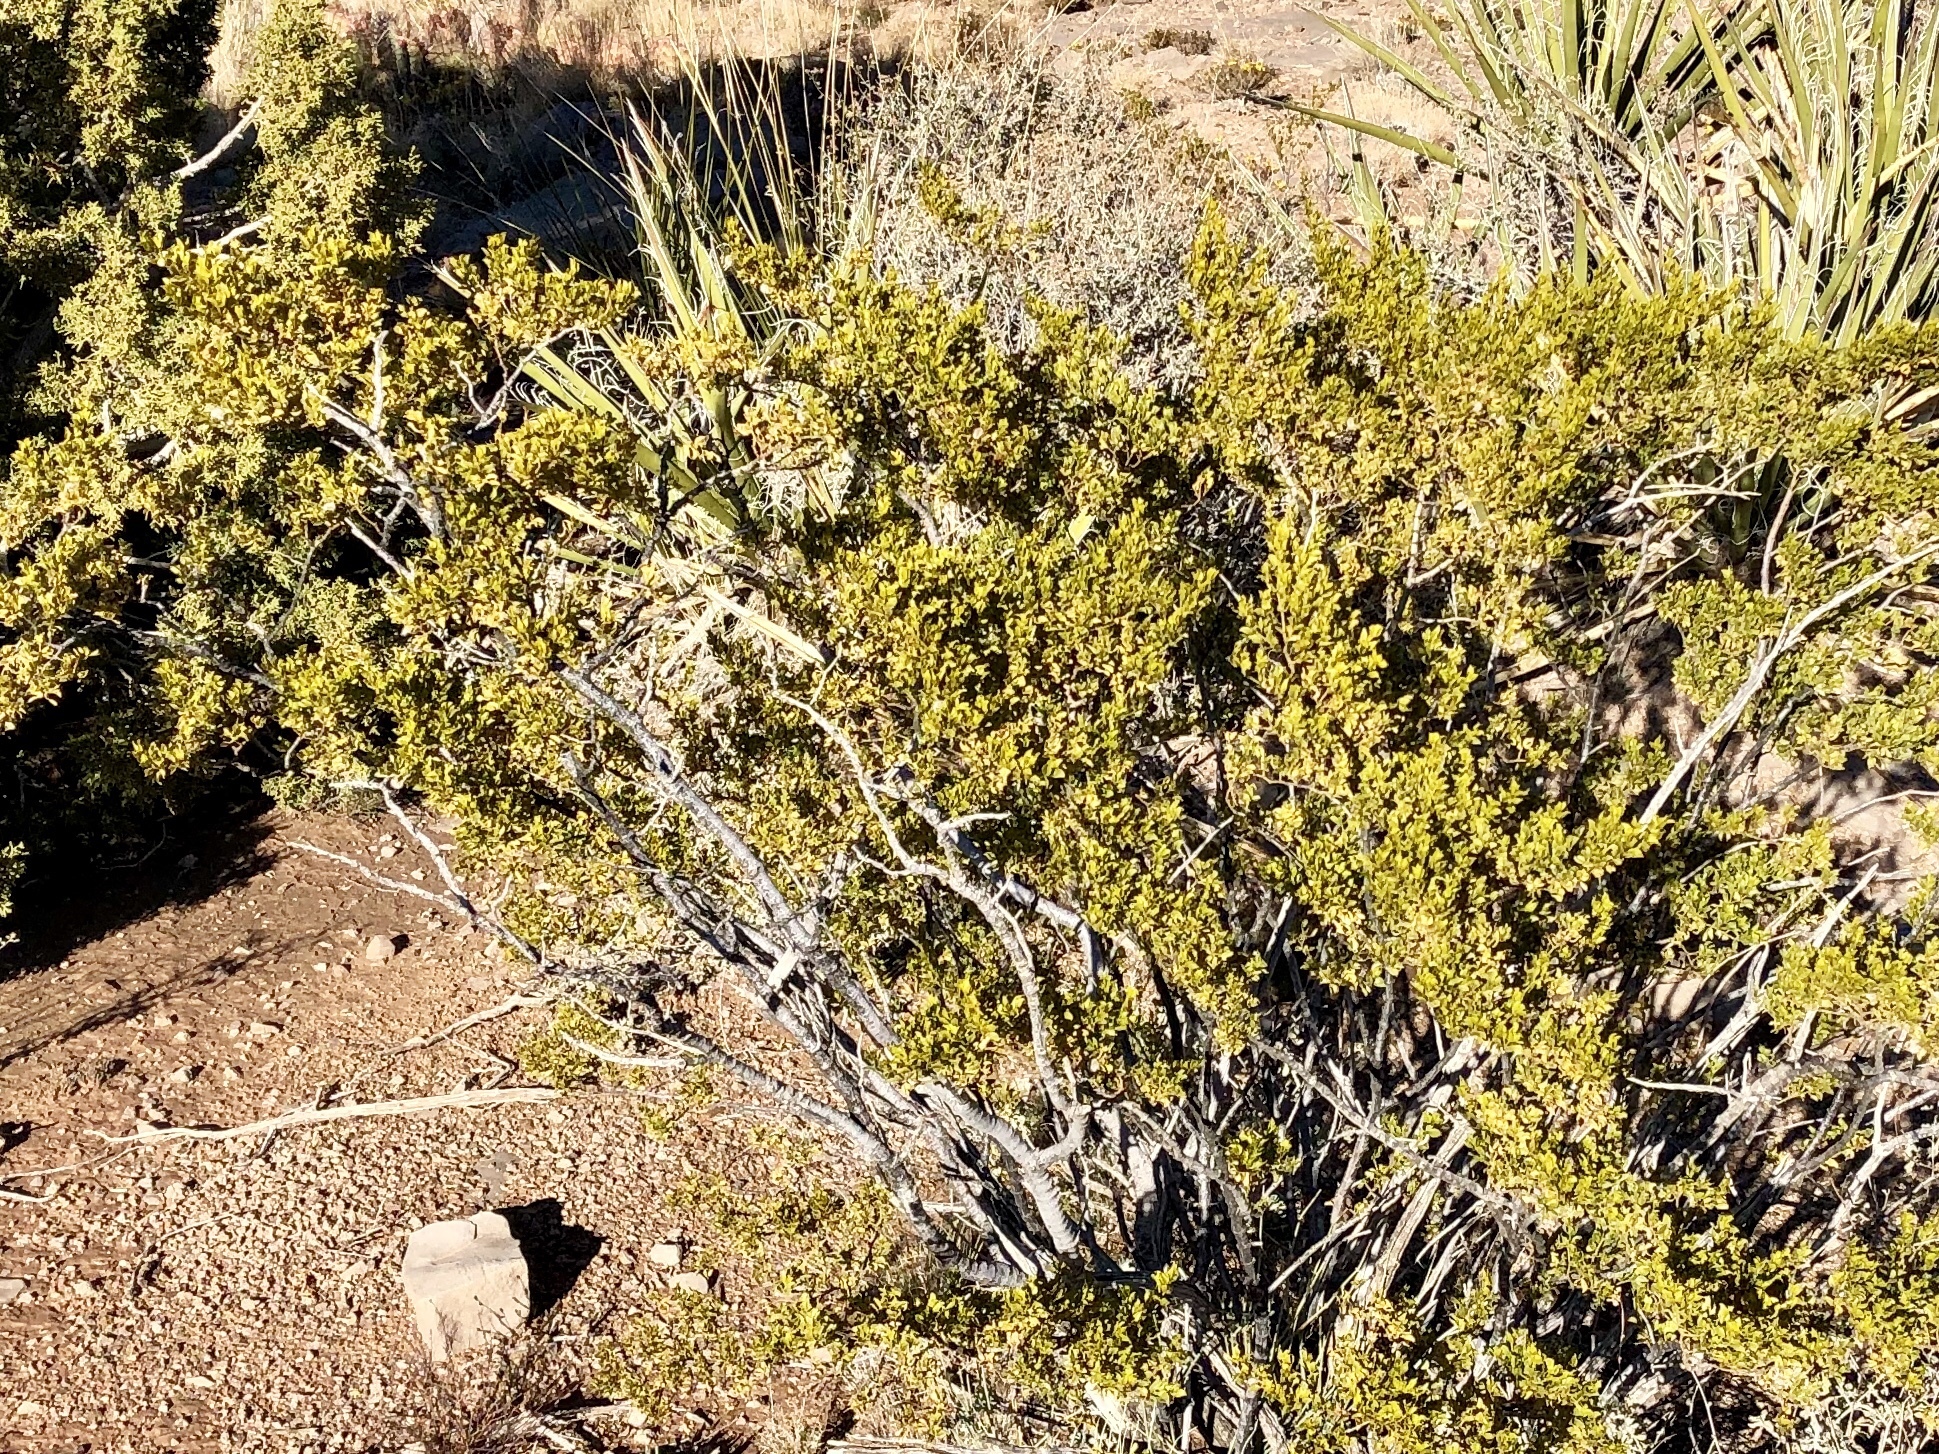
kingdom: Plantae
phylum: Tracheophyta
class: Magnoliopsida
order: Zygophyllales
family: Zygophyllaceae
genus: Larrea
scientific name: Larrea tridentata
